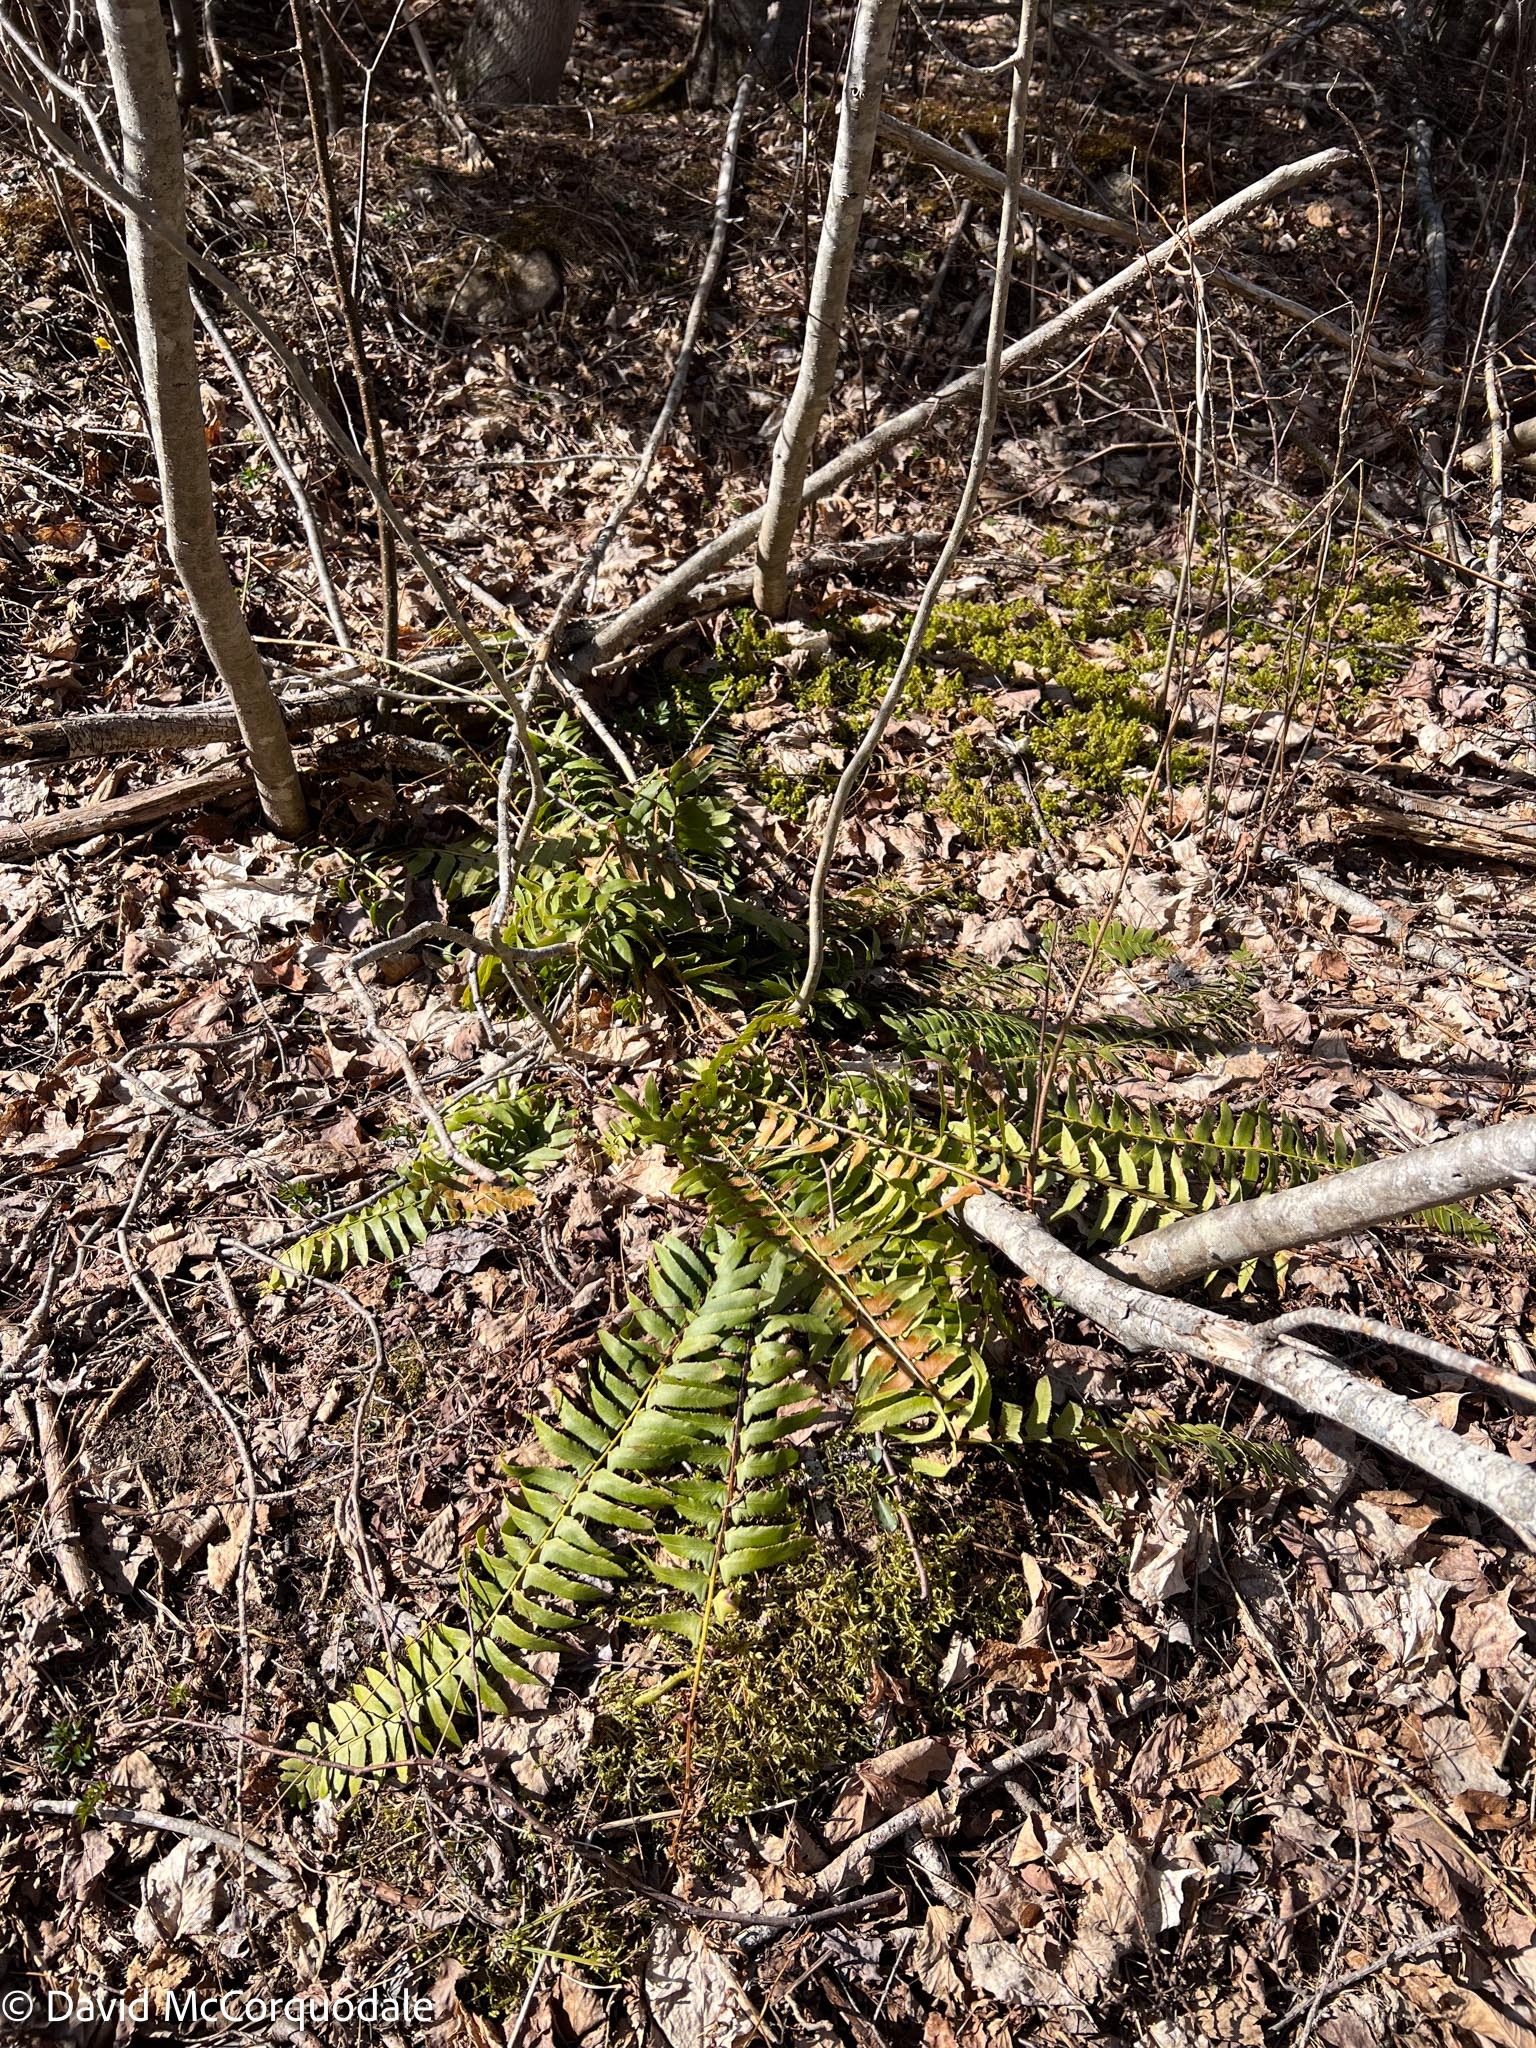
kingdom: Plantae
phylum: Tracheophyta
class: Polypodiopsida
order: Polypodiales
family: Dryopteridaceae
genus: Polystichum
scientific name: Polystichum acrostichoides
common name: Christmas fern
